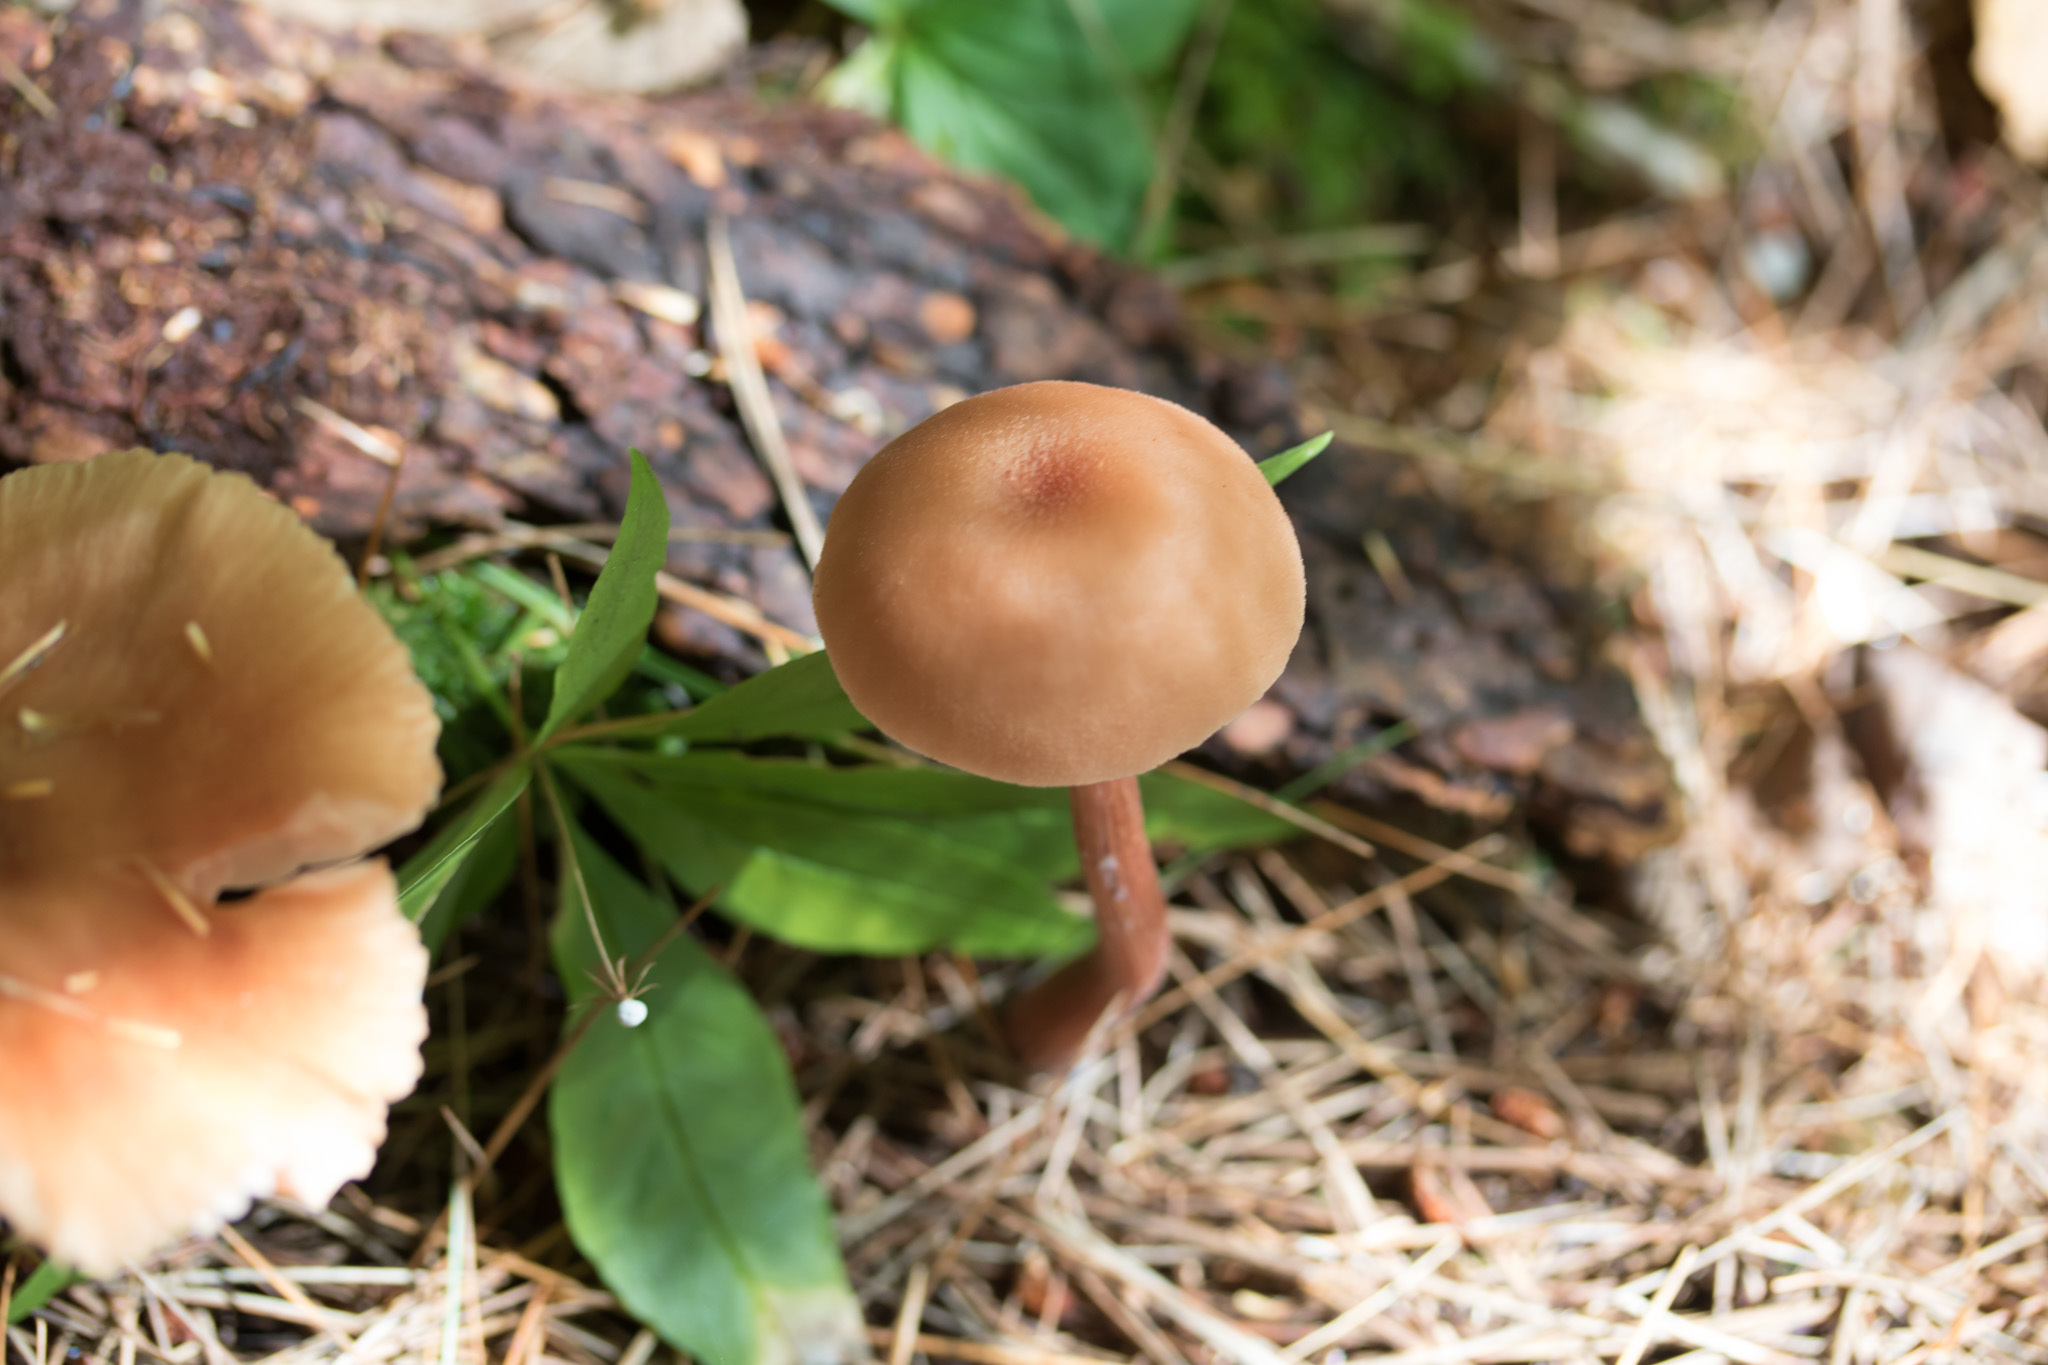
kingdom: Fungi
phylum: Basidiomycota
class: Agaricomycetes
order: Agaricales
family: Hydnangiaceae
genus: Laccaria
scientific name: Laccaria bicolor
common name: Bicoloured deceiver
